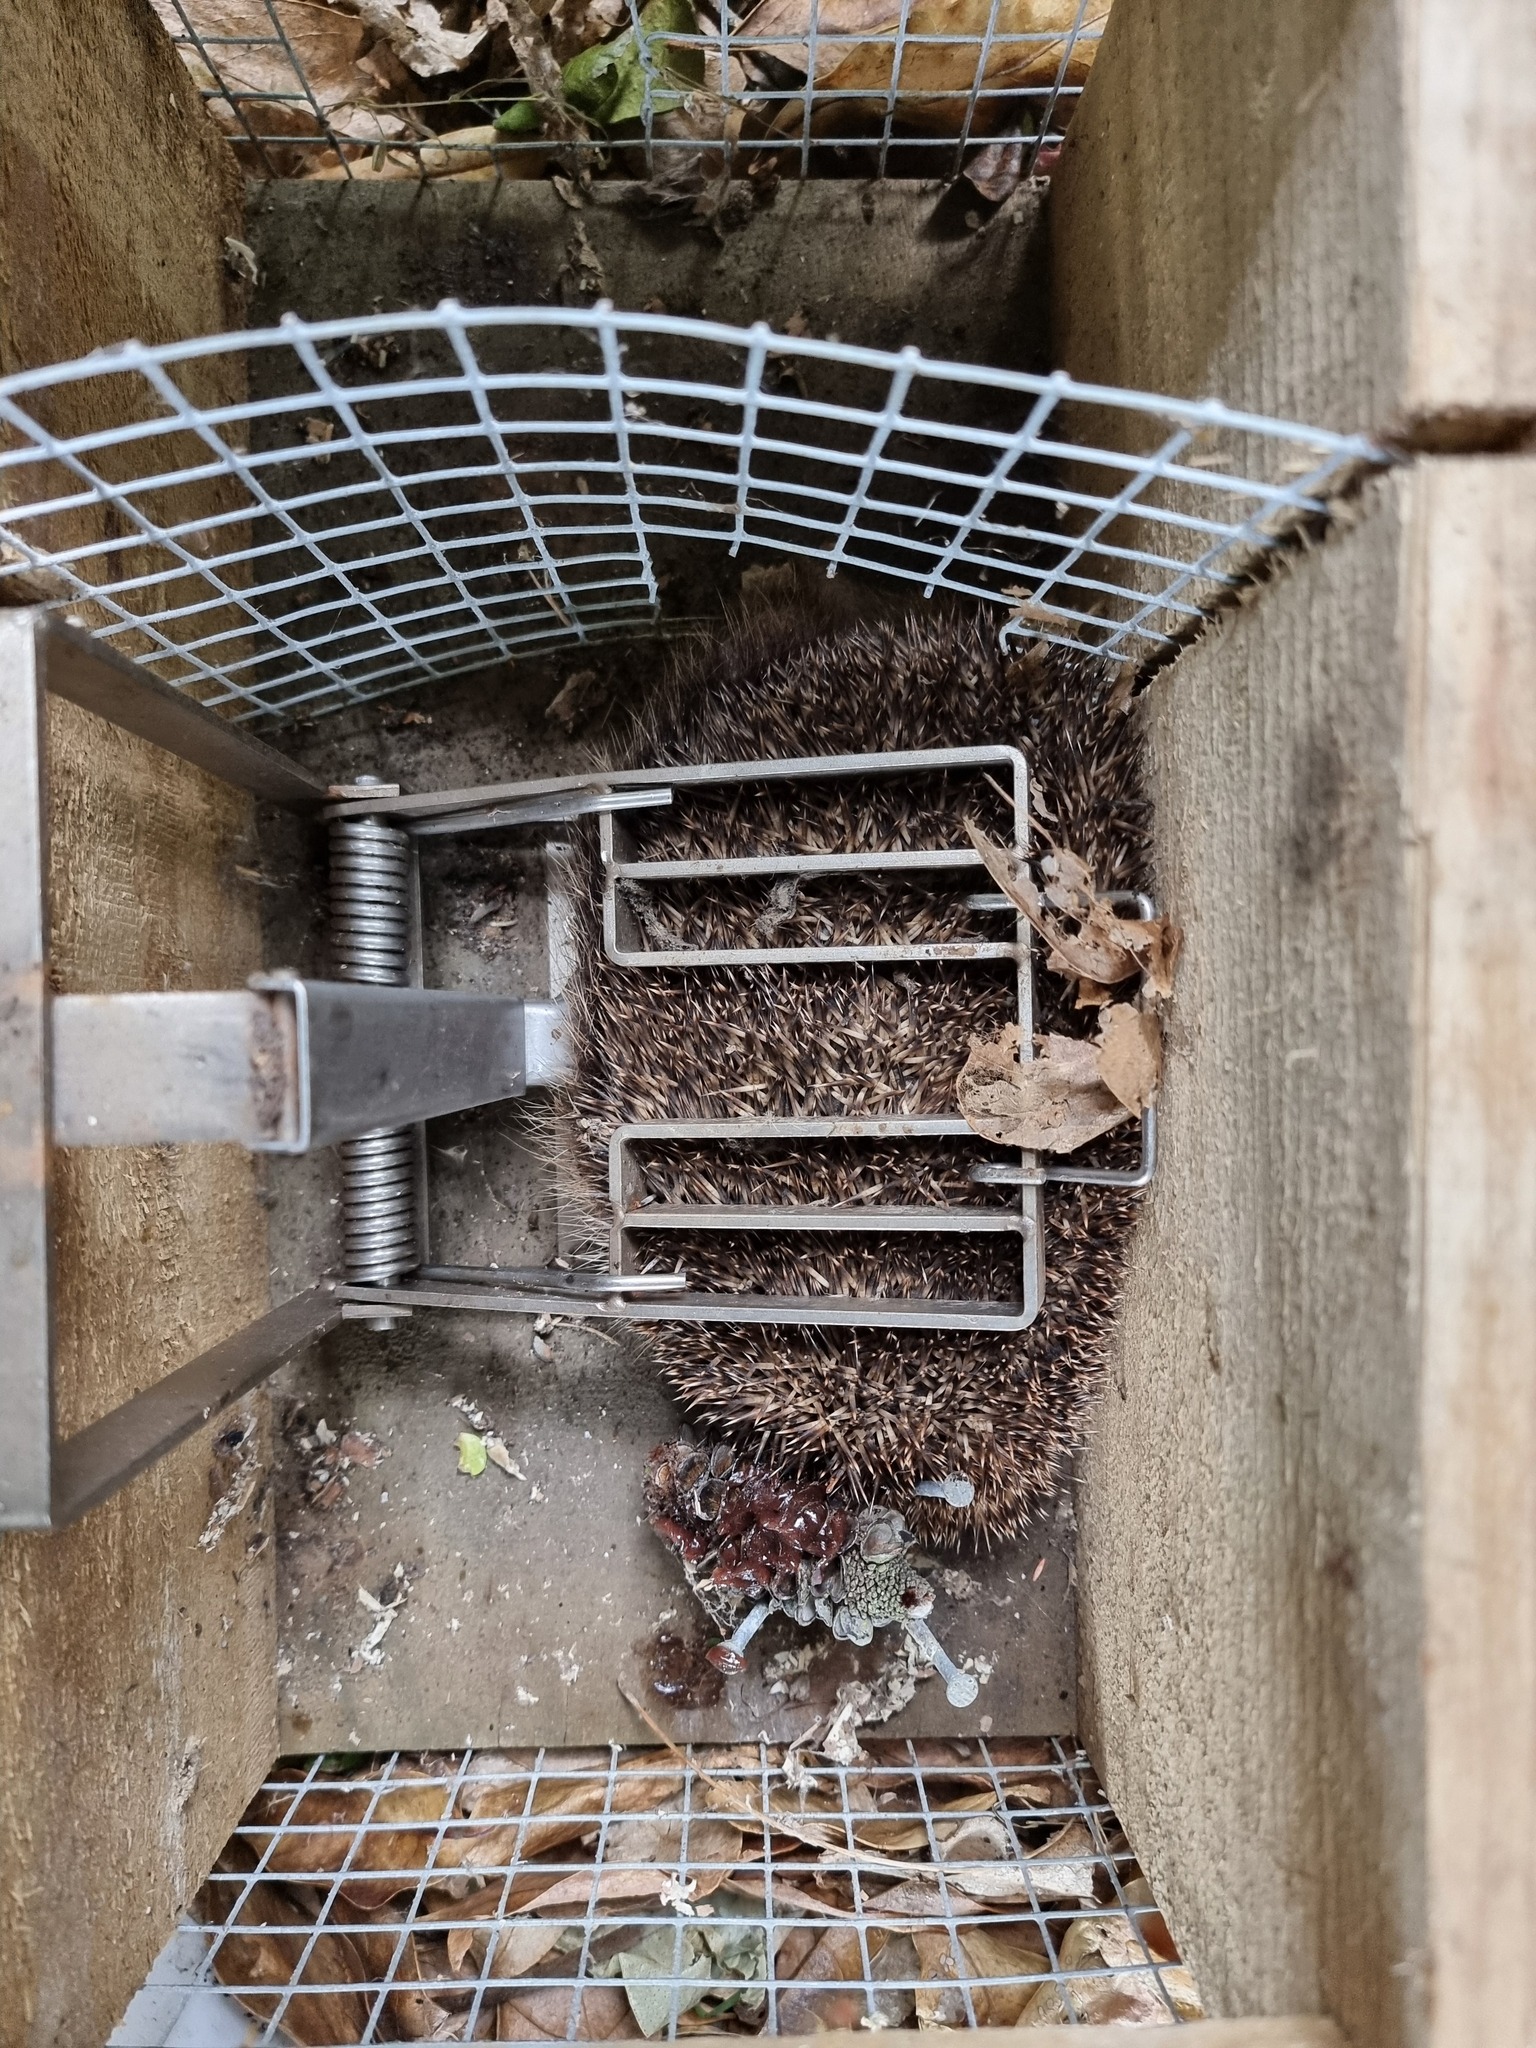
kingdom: Animalia
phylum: Chordata
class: Mammalia
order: Erinaceomorpha
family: Erinaceidae
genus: Erinaceus
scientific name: Erinaceus europaeus
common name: West european hedgehog
